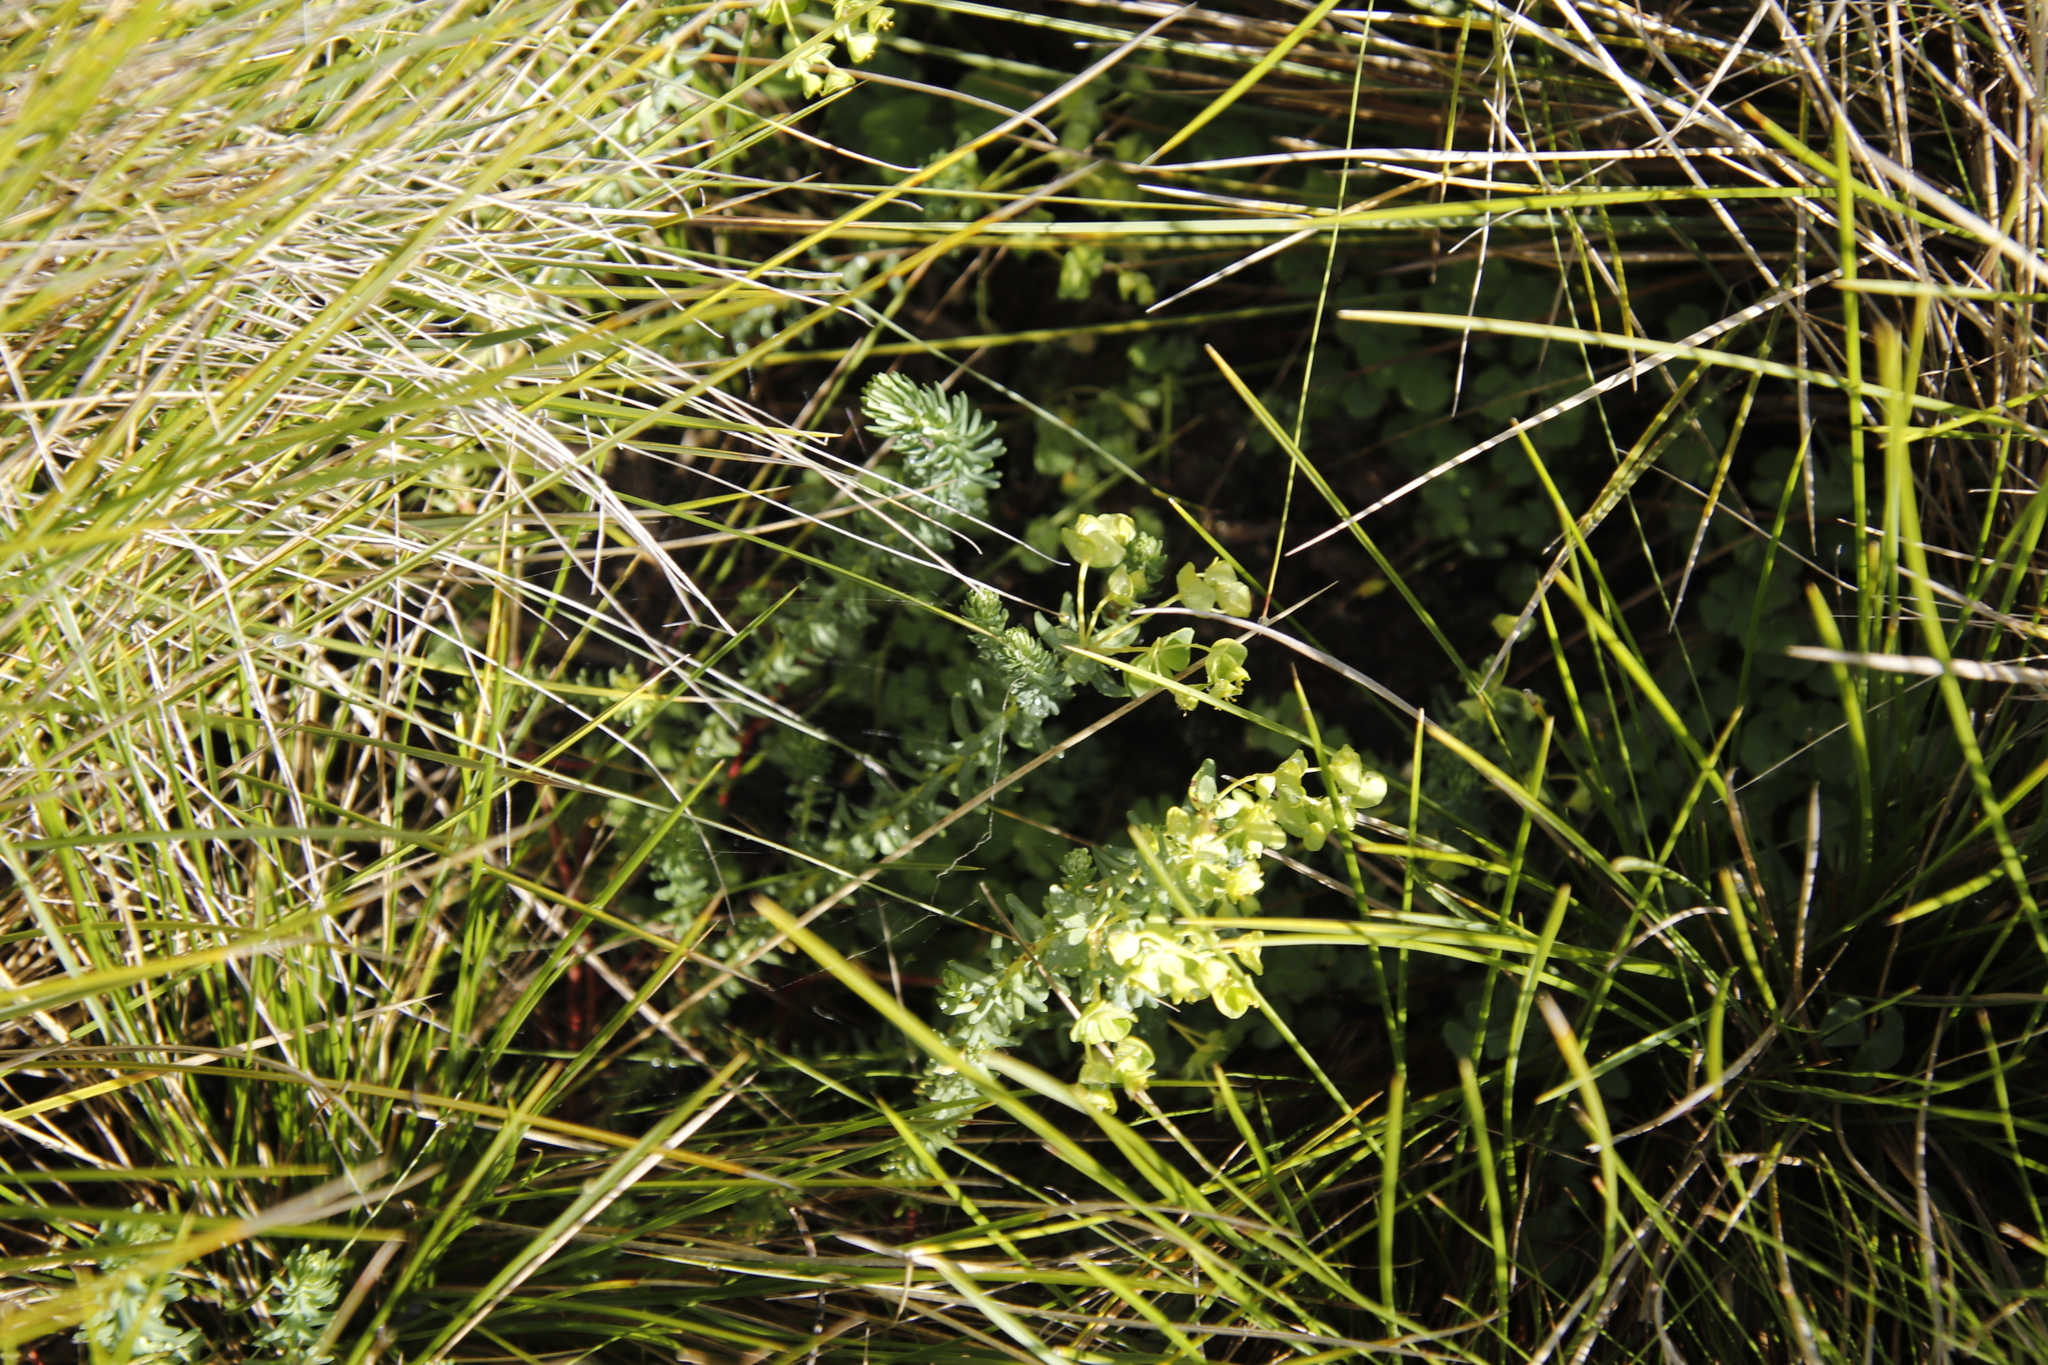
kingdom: Plantae
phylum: Tracheophyta
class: Magnoliopsida
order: Malpighiales
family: Euphorbiaceae
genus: Euphorbia
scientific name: Euphorbia natalensis
